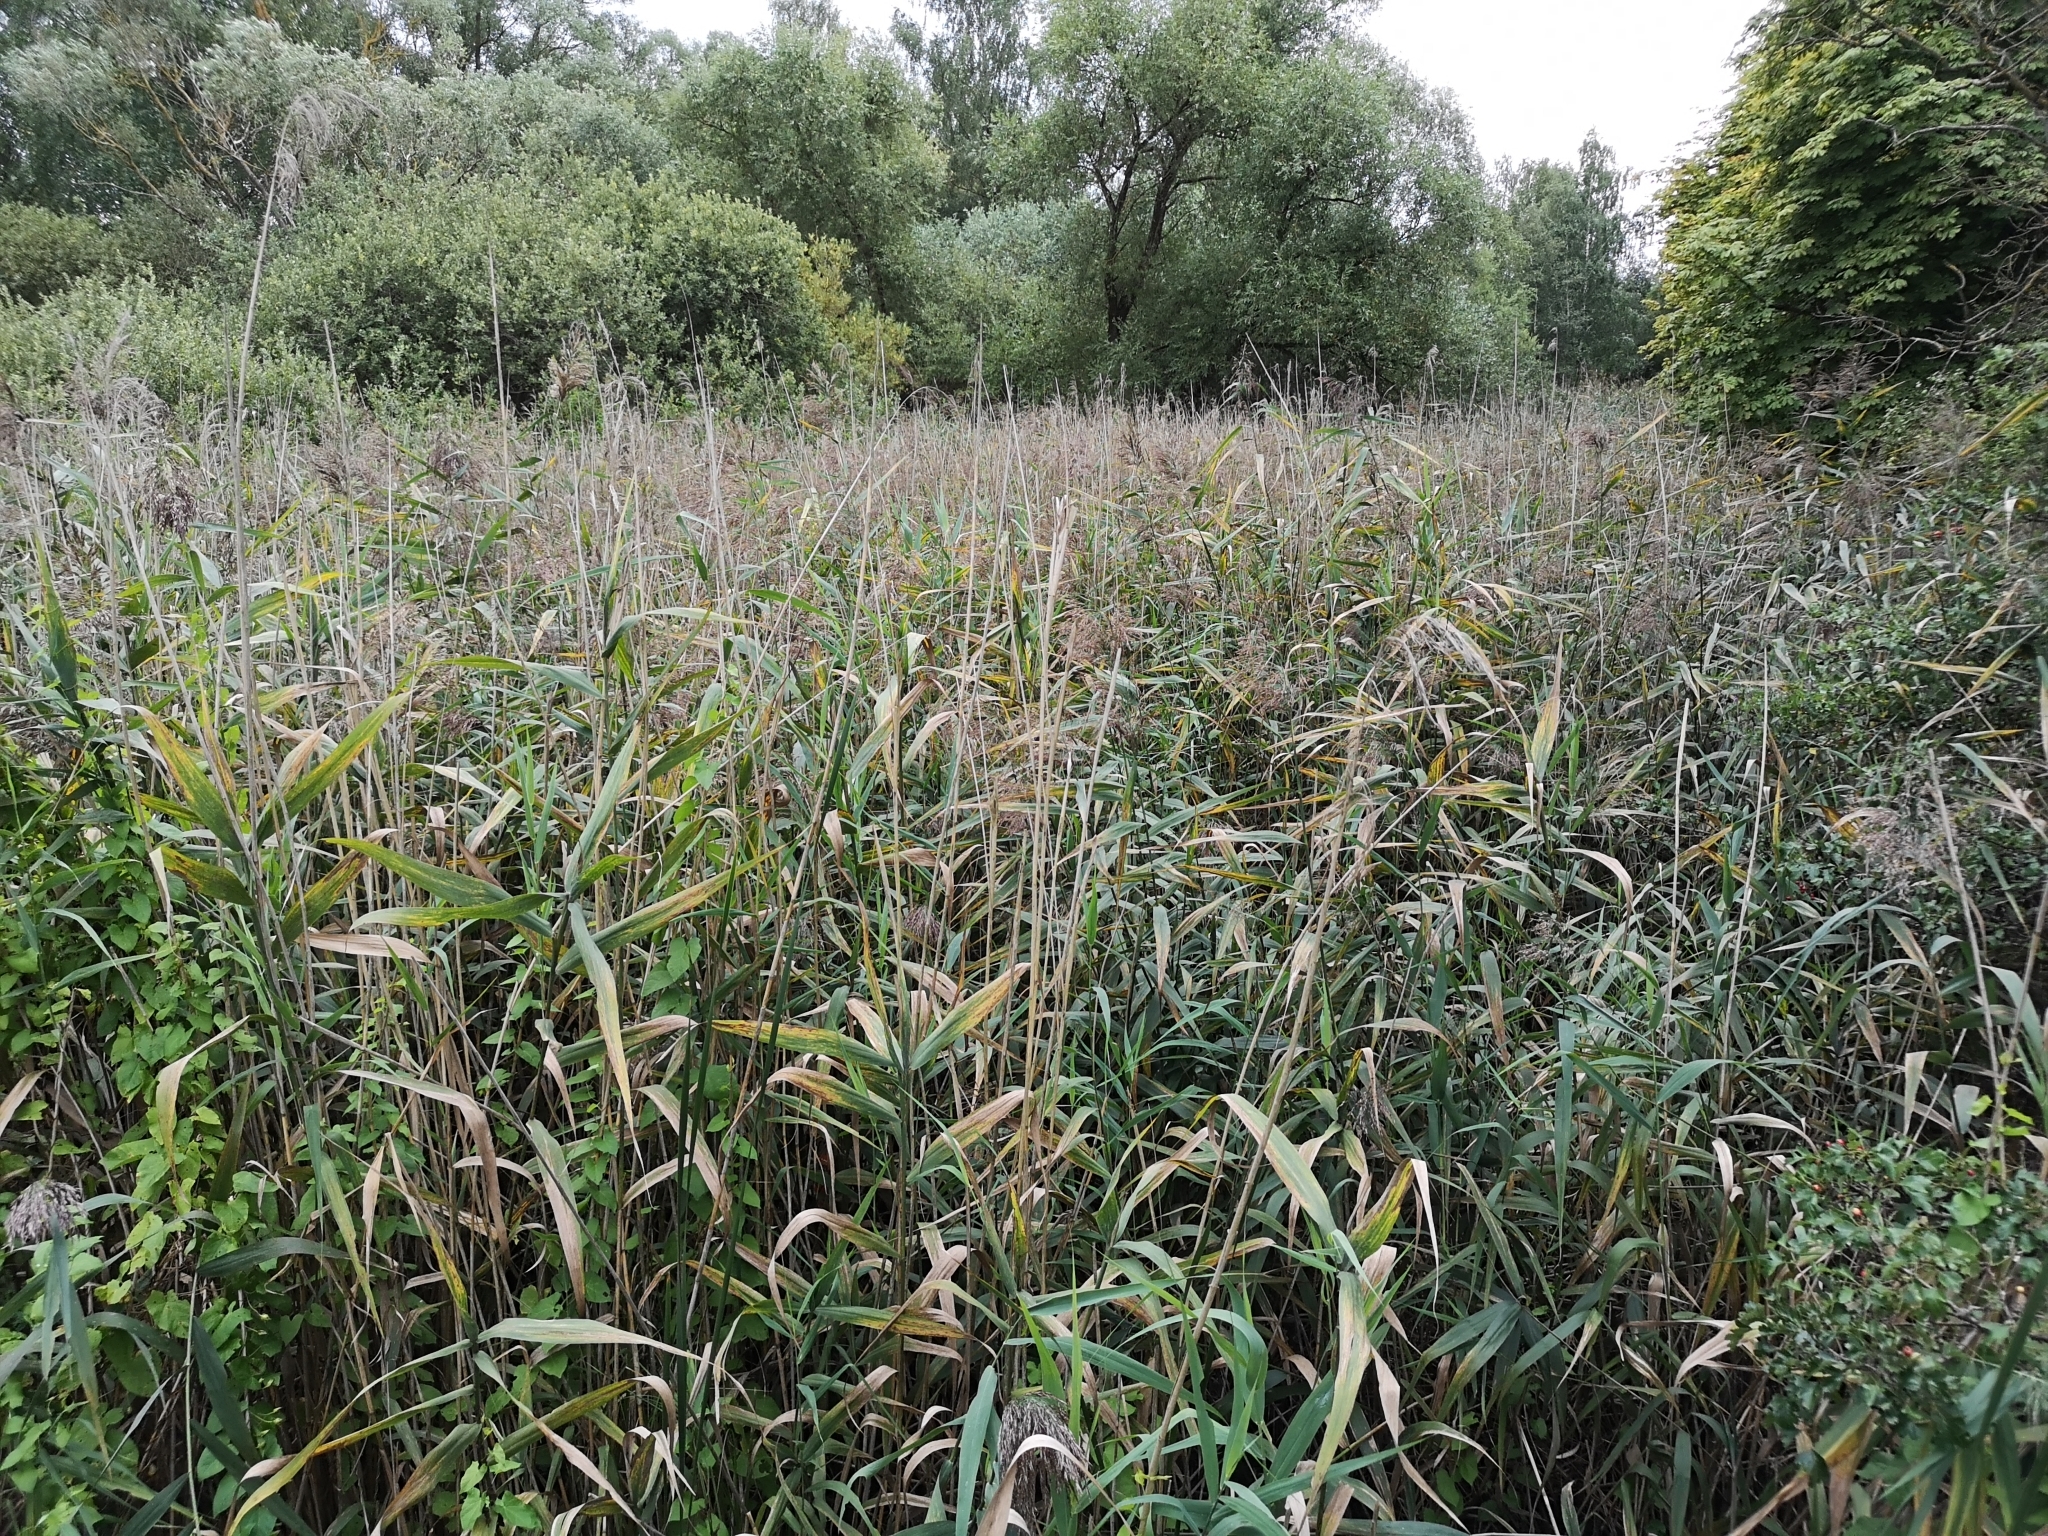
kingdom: Plantae
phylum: Tracheophyta
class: Liliopsida
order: Poales
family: Poaceae
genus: Phragmites
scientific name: Phragmites australis
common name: Common reed
